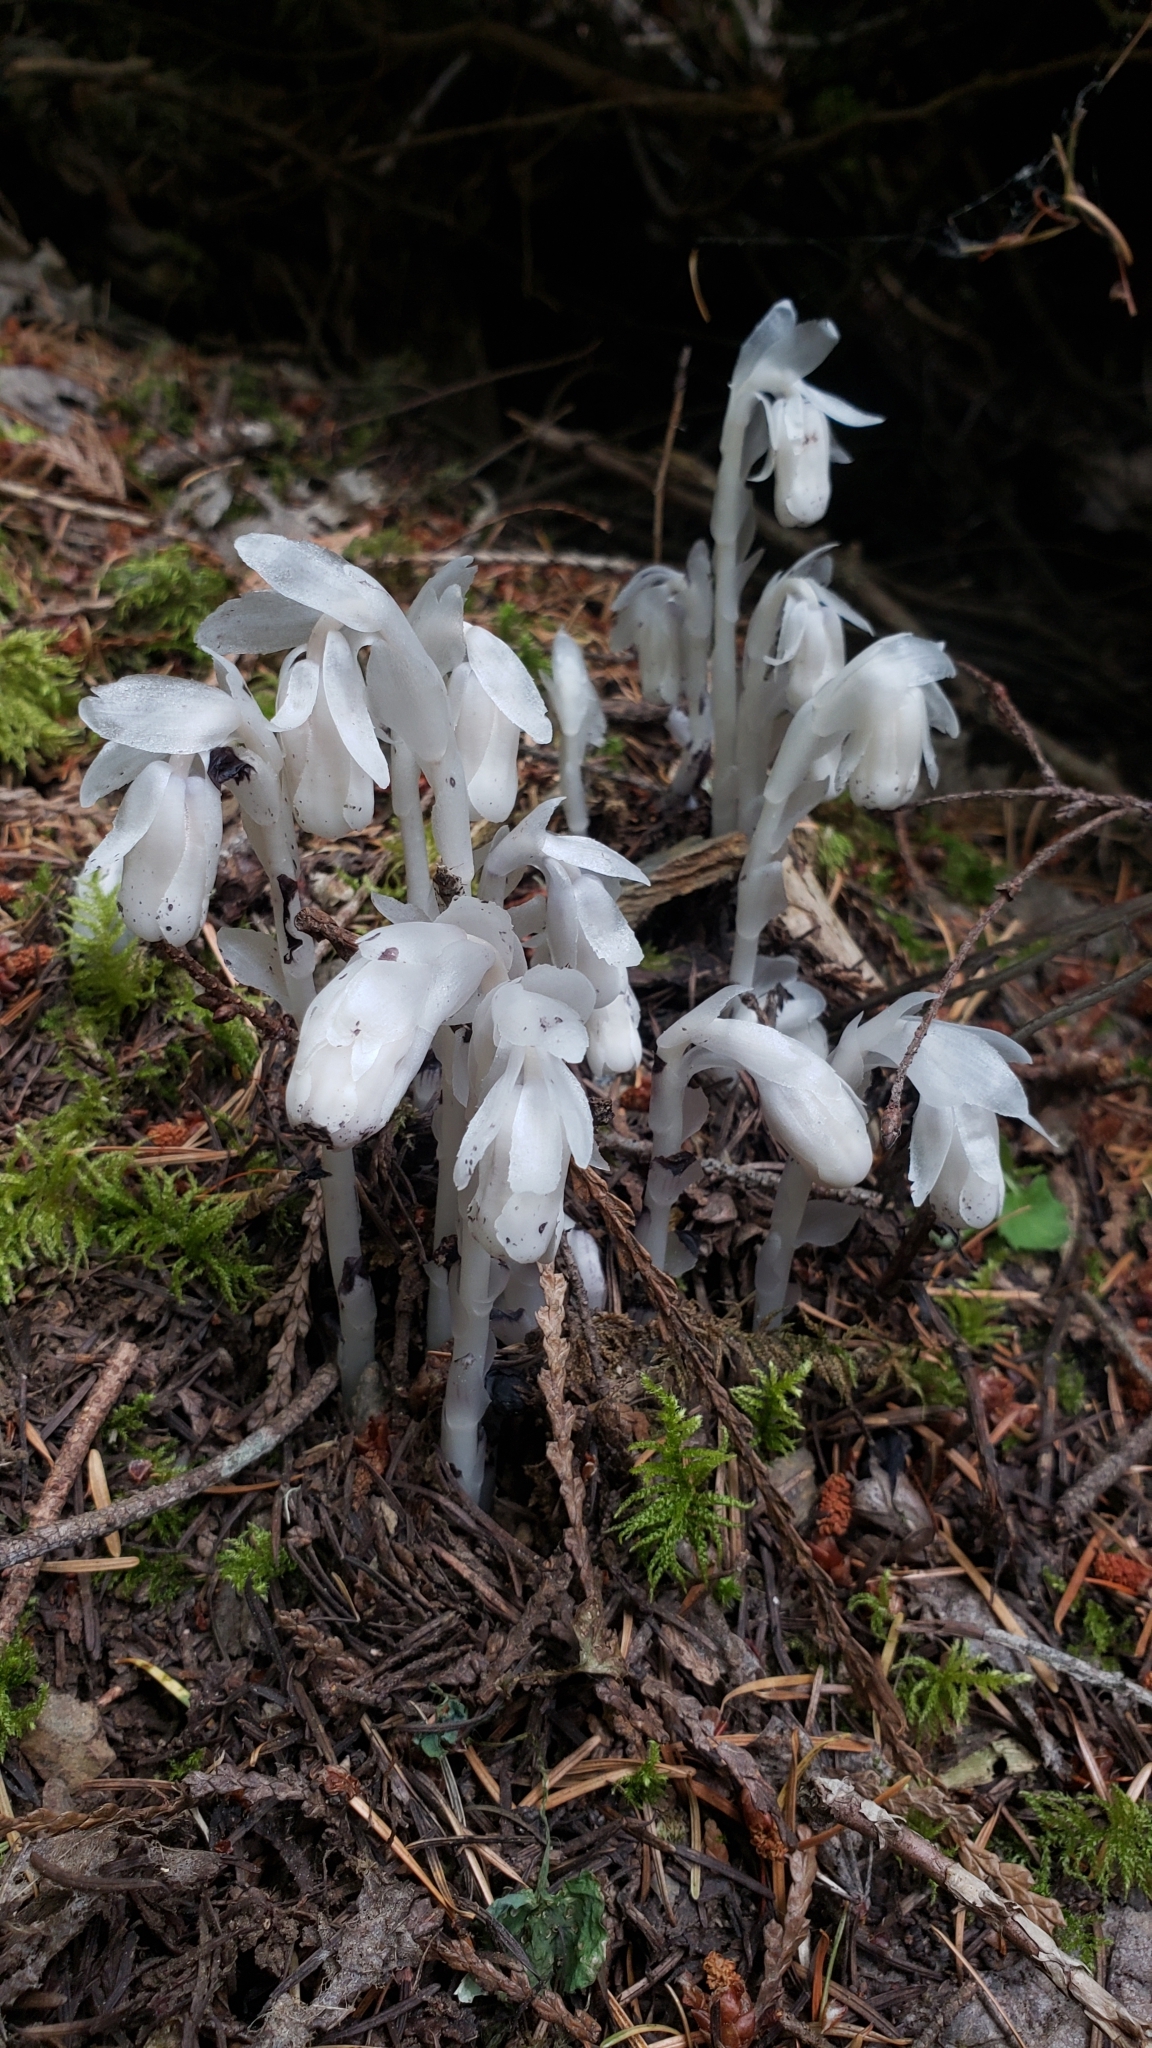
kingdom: Plantae
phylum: Tracheophyta
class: Magnoliopsida
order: Ericales
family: Ericaceae
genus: Monotropa
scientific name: Monotropa uniflora
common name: Convulsion root
